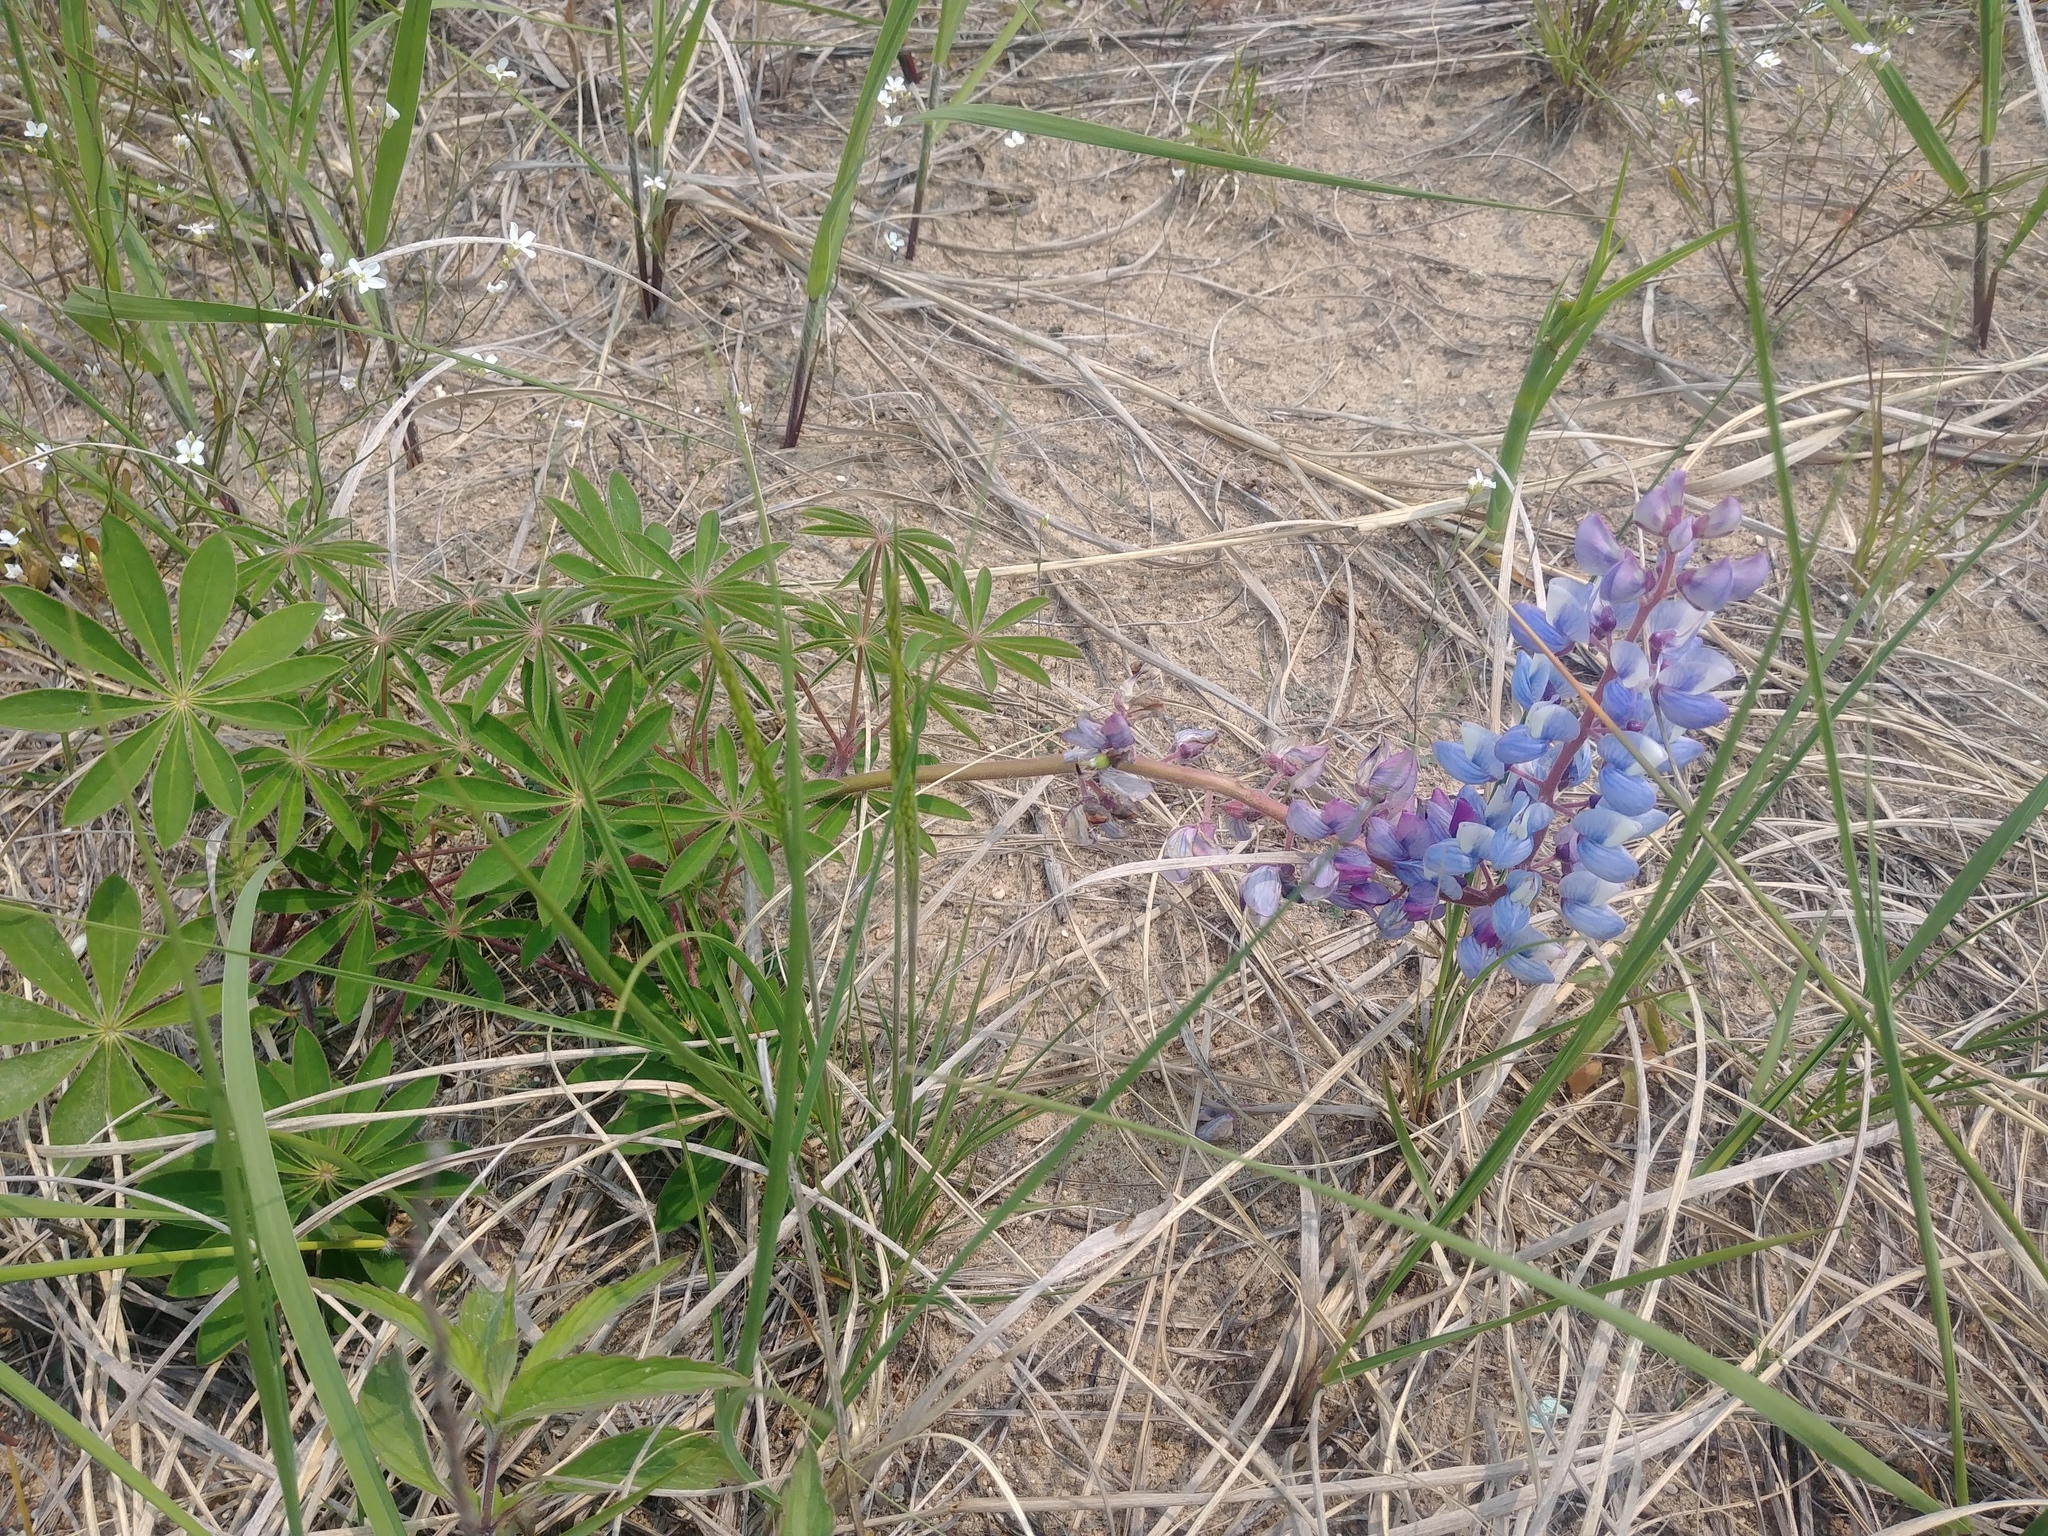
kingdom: Plantae
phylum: Tracheophyta
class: Magnoliopsida
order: Fabales
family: Fabaceae
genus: Lupinus
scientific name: Lupinus perennis
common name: Sundial lupine
